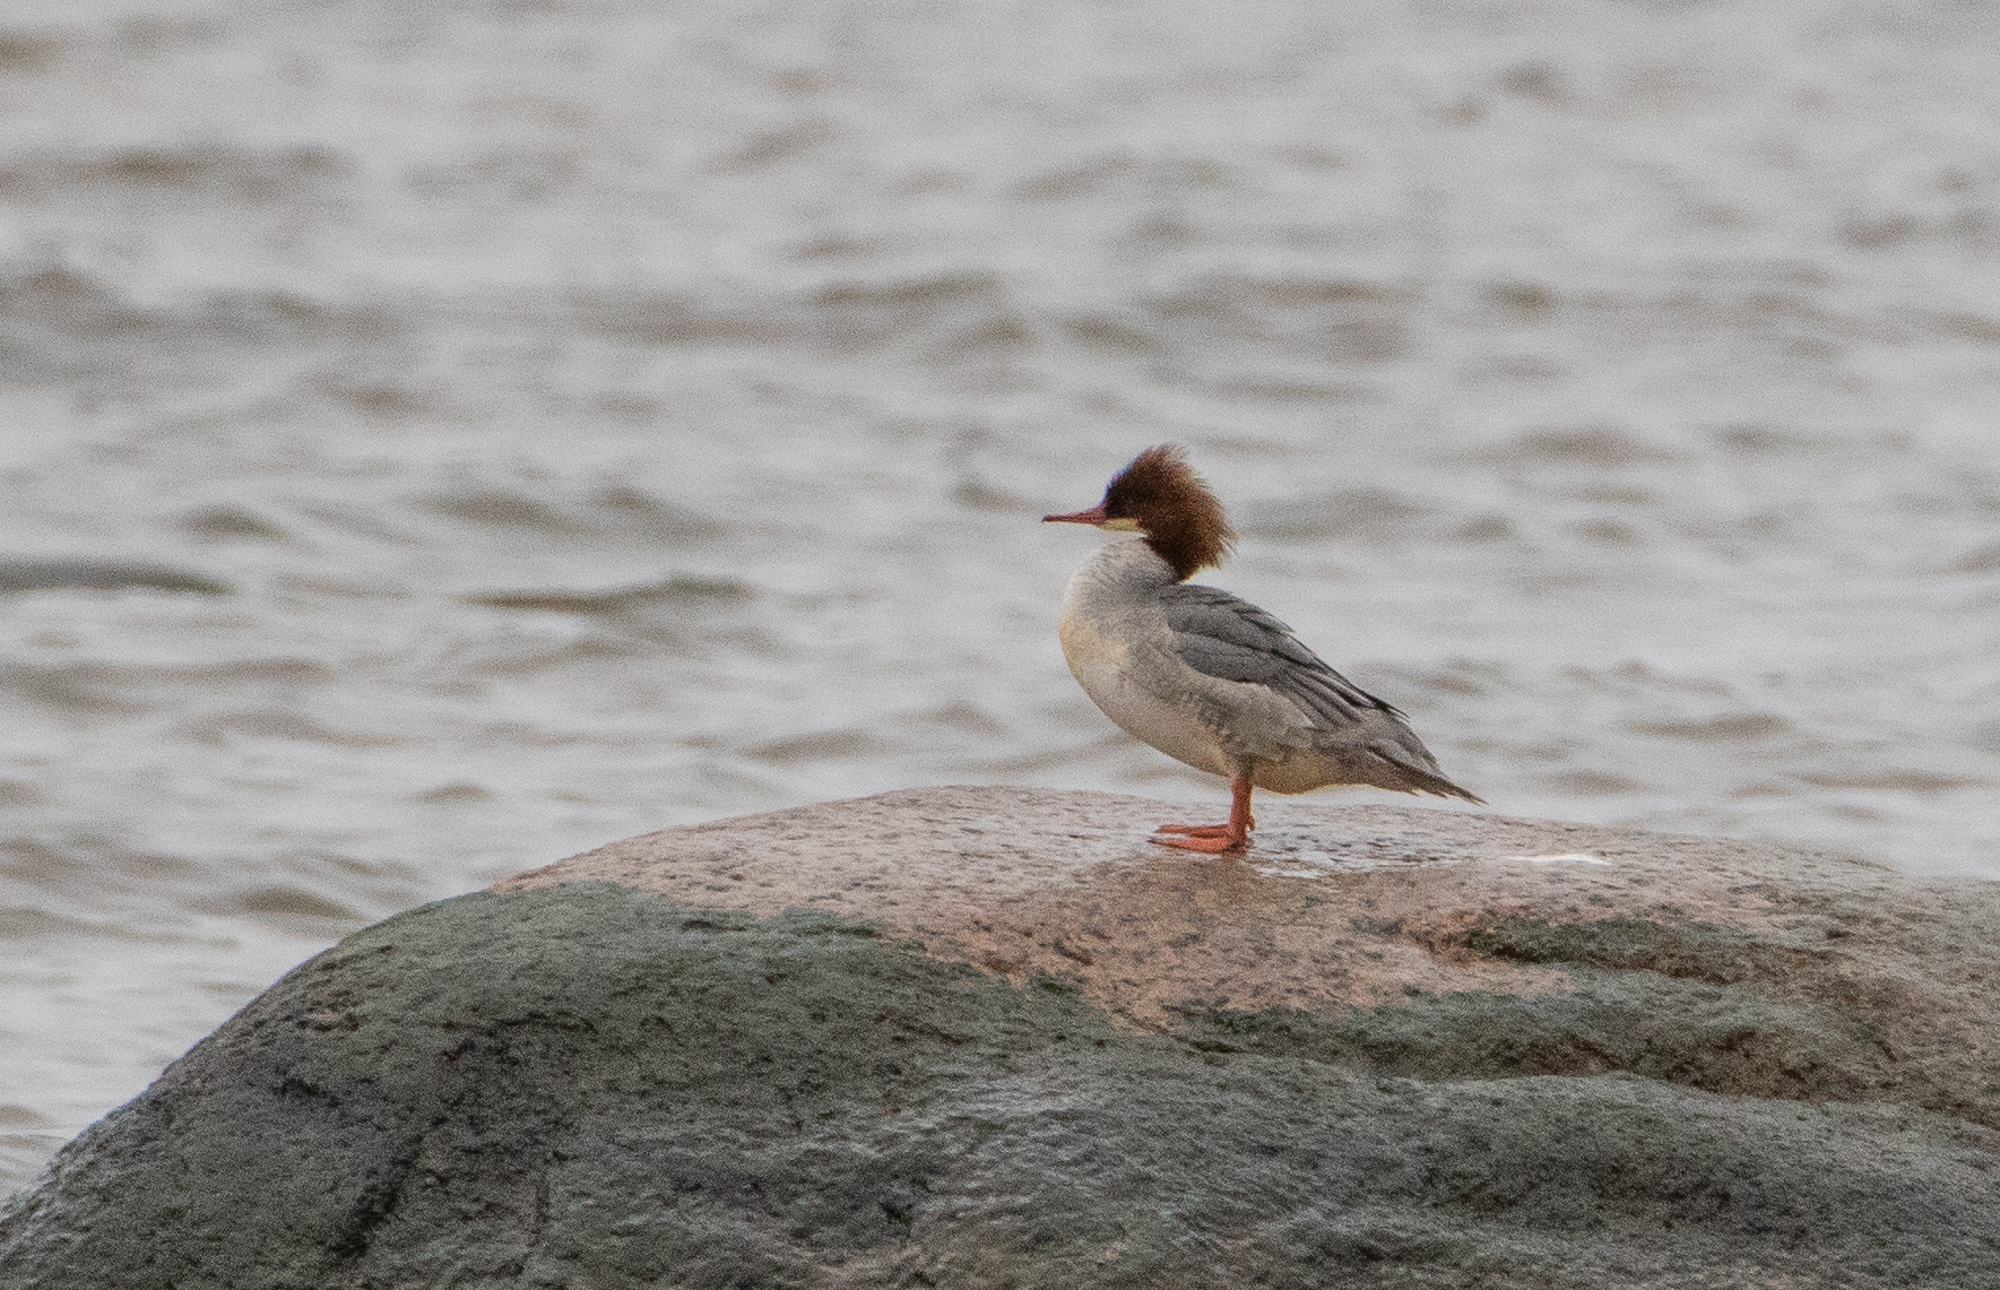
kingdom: Animalia
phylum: Chordata
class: Aves
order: Anseriformes
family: Anatidae
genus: Mergus
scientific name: Mergus merganser
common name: Common merganser
